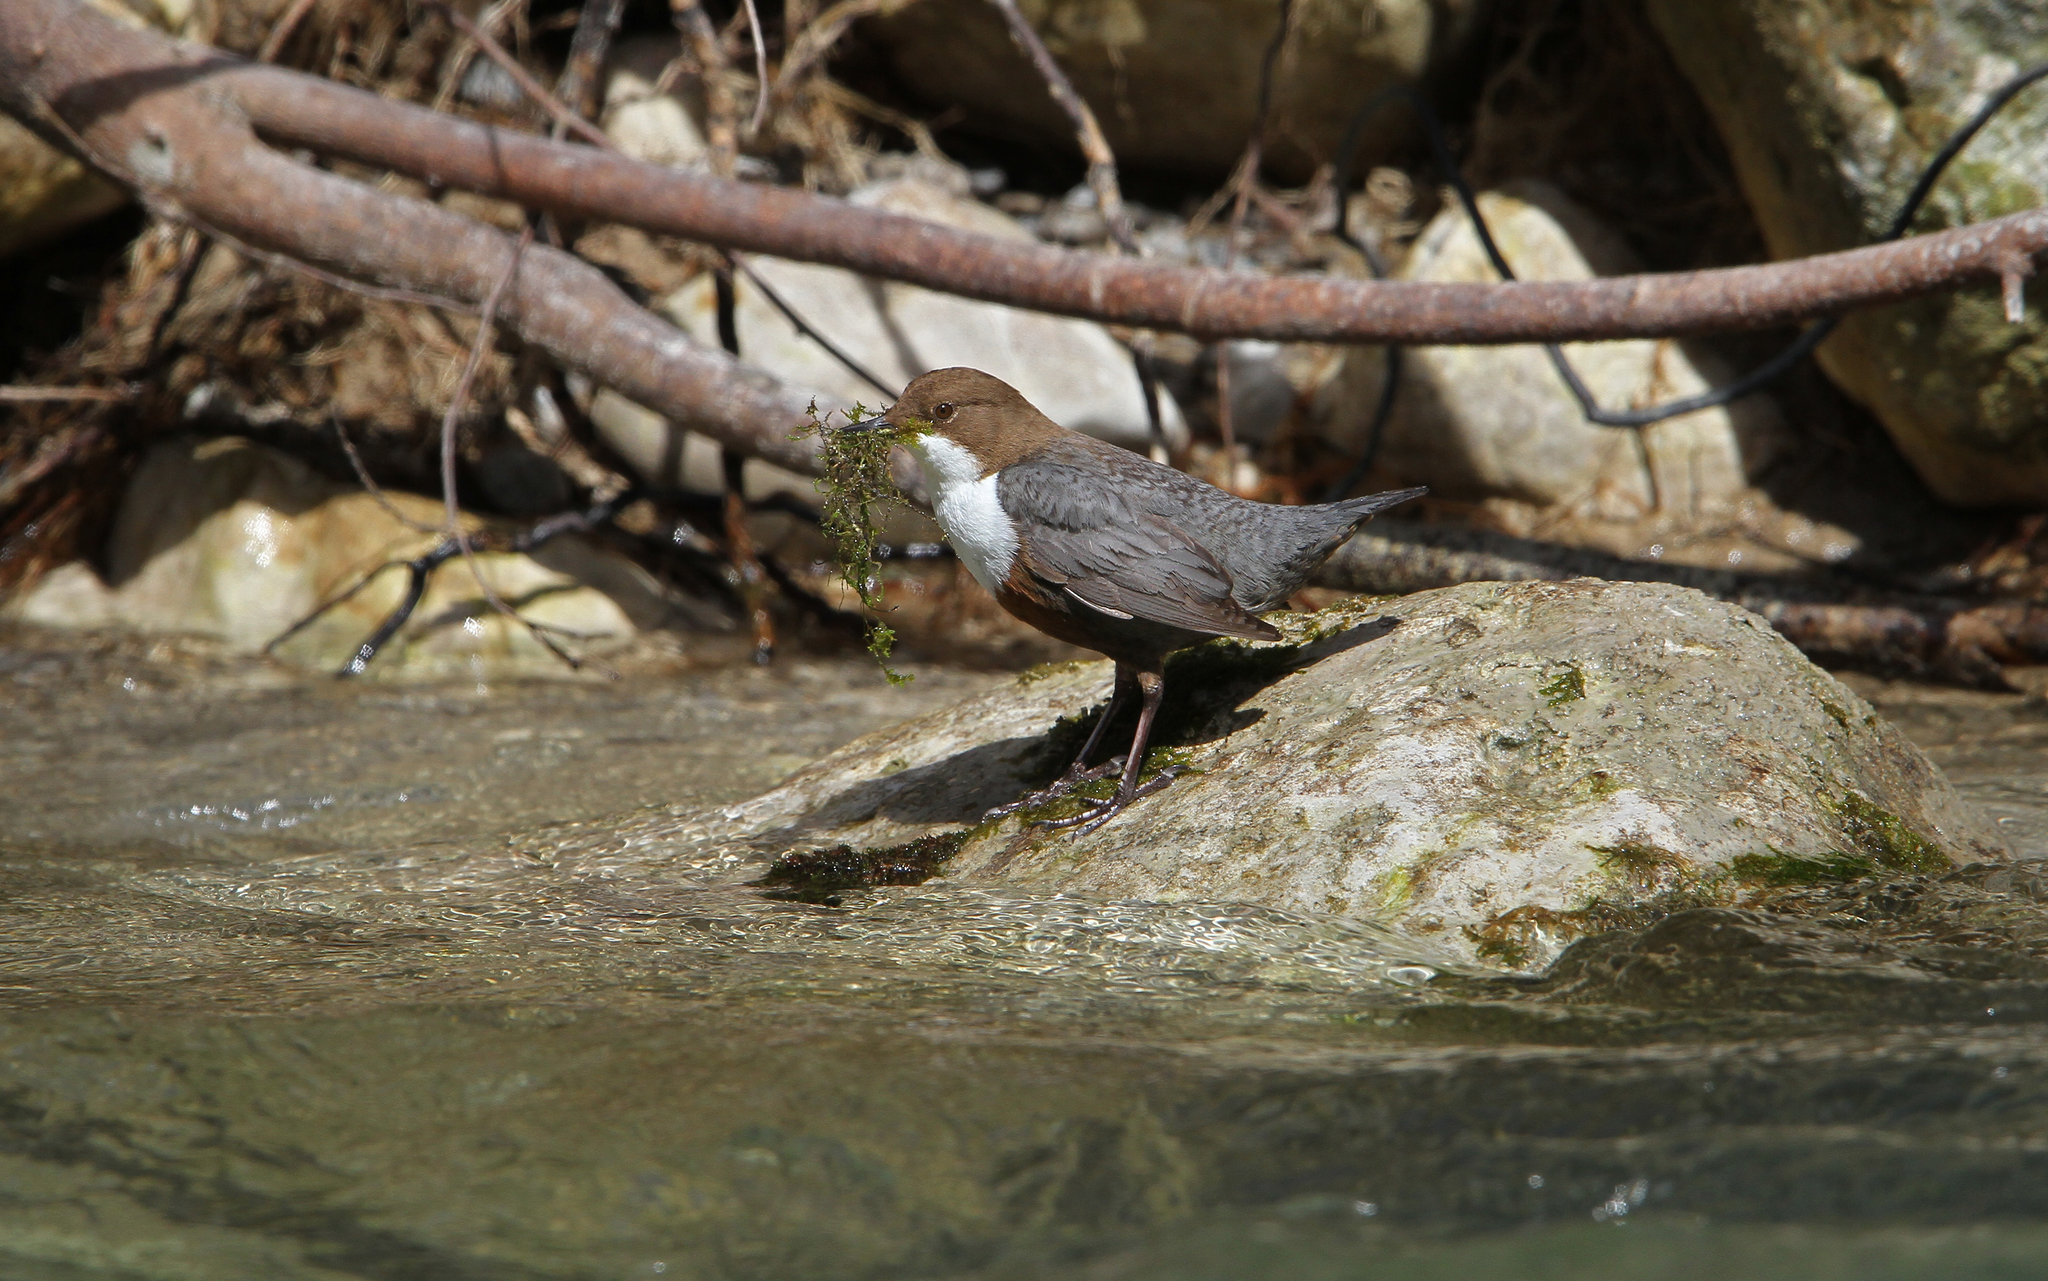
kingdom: Animalia
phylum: Chordata
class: Aves
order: Passeriformes
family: Cinclidae
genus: Cinclus
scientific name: Cinclus cinclus
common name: White-throated dipper
